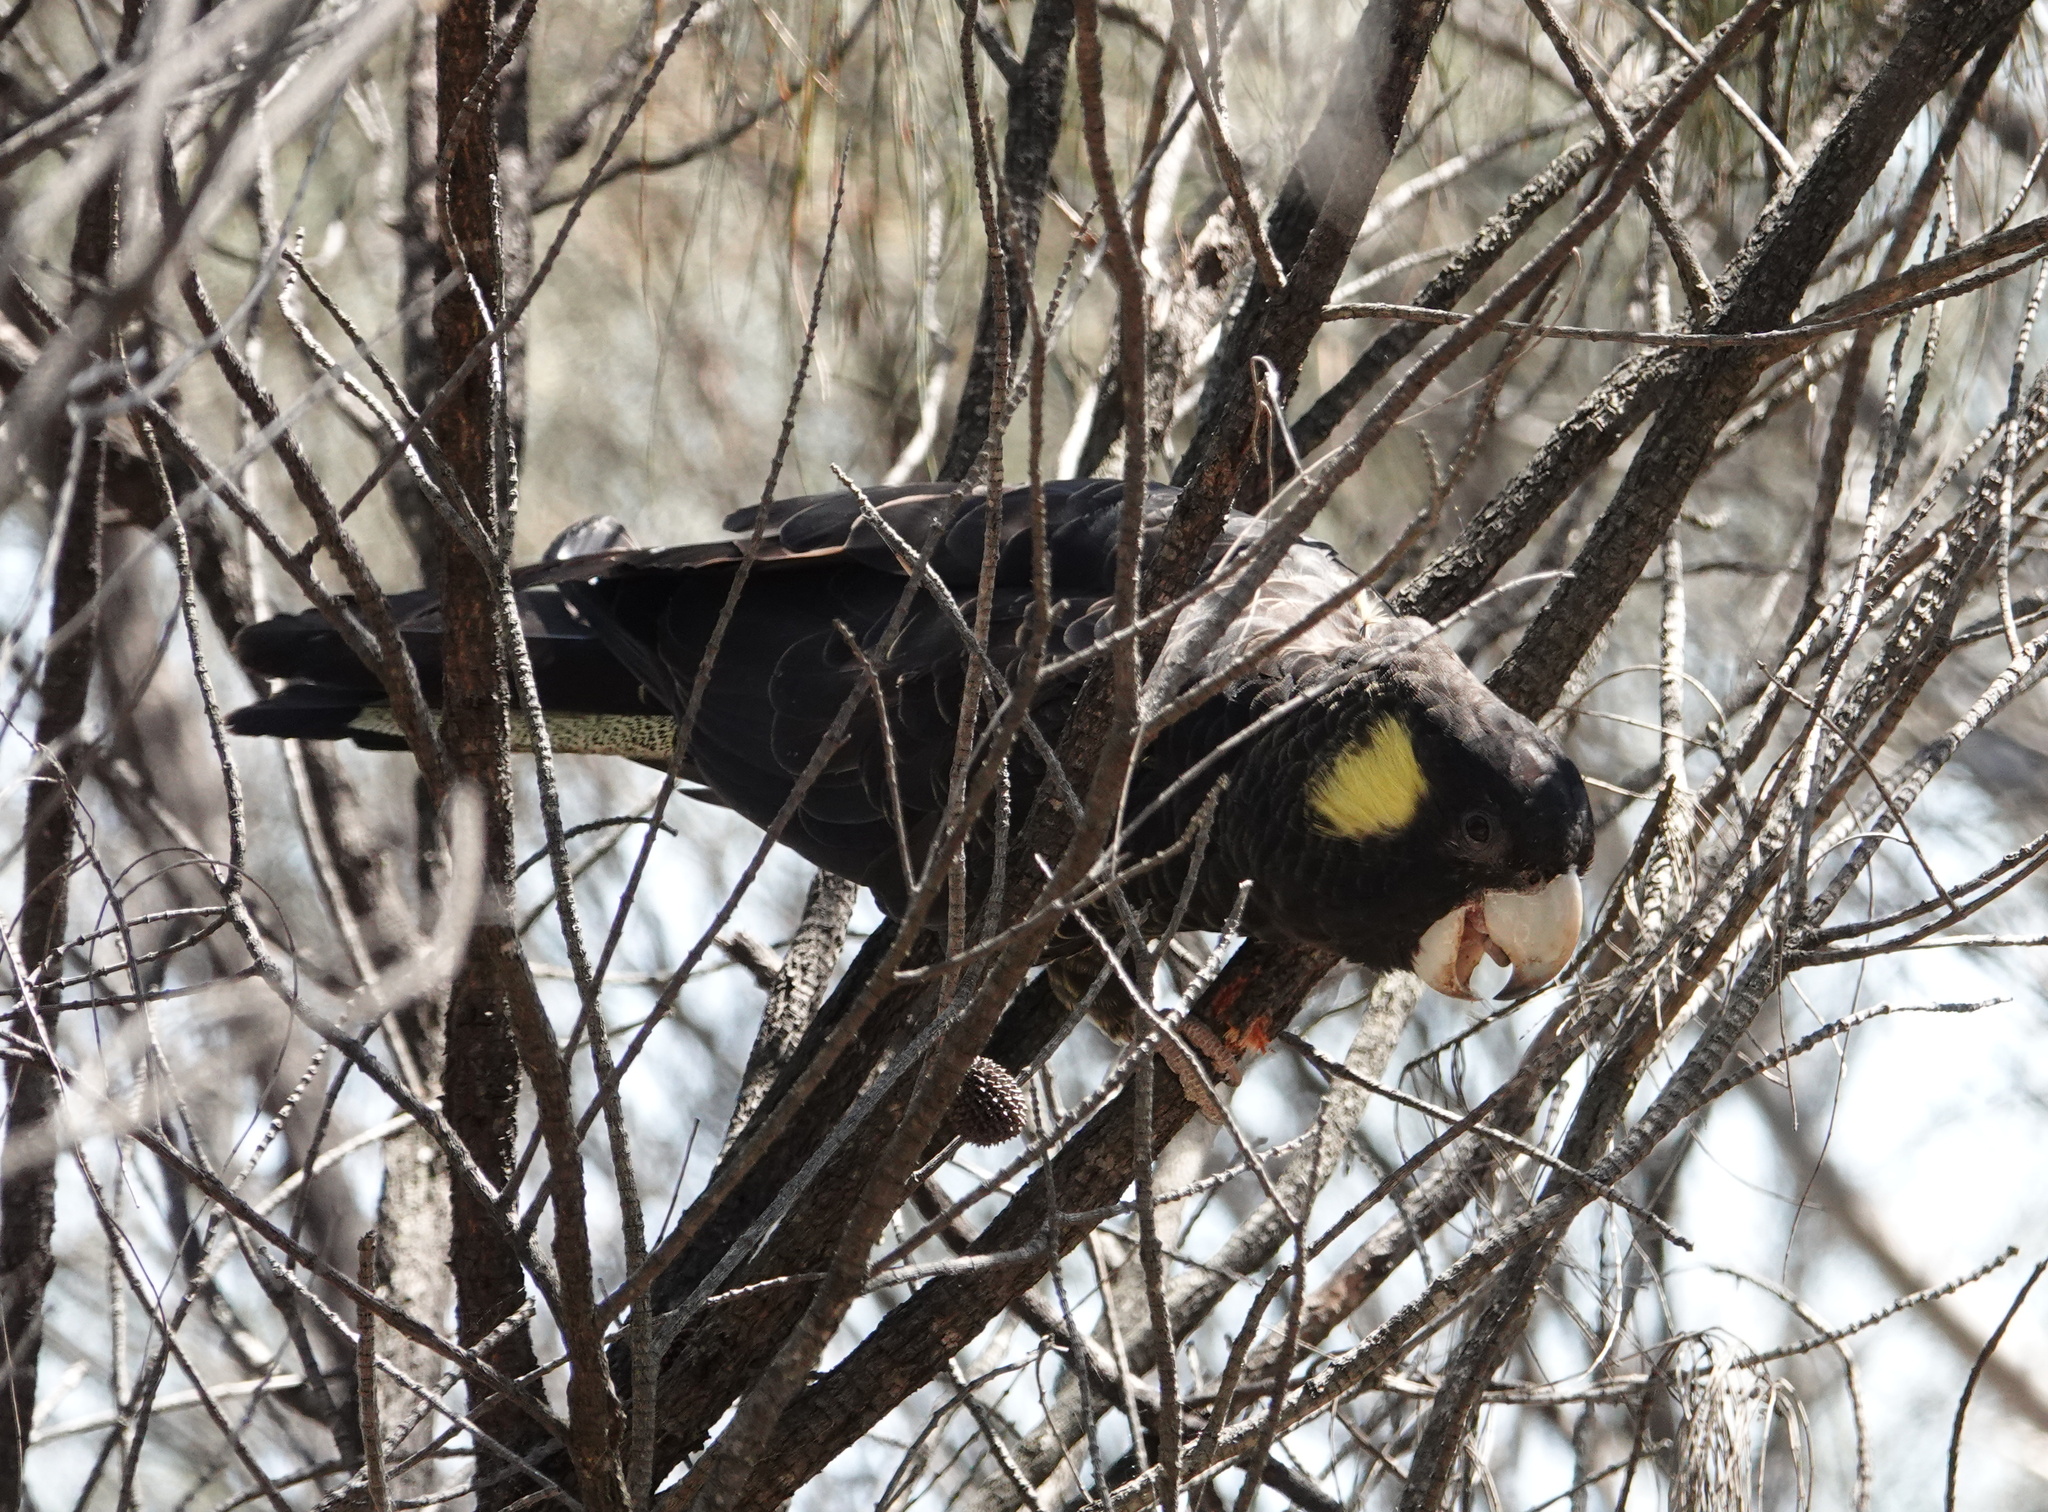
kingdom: Animalia
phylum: Chordata
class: Aves
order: Psittaciformes
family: Cacatuidae
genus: Zanda
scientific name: Zanda funerea
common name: Yellow-tailed black-cockatoo
